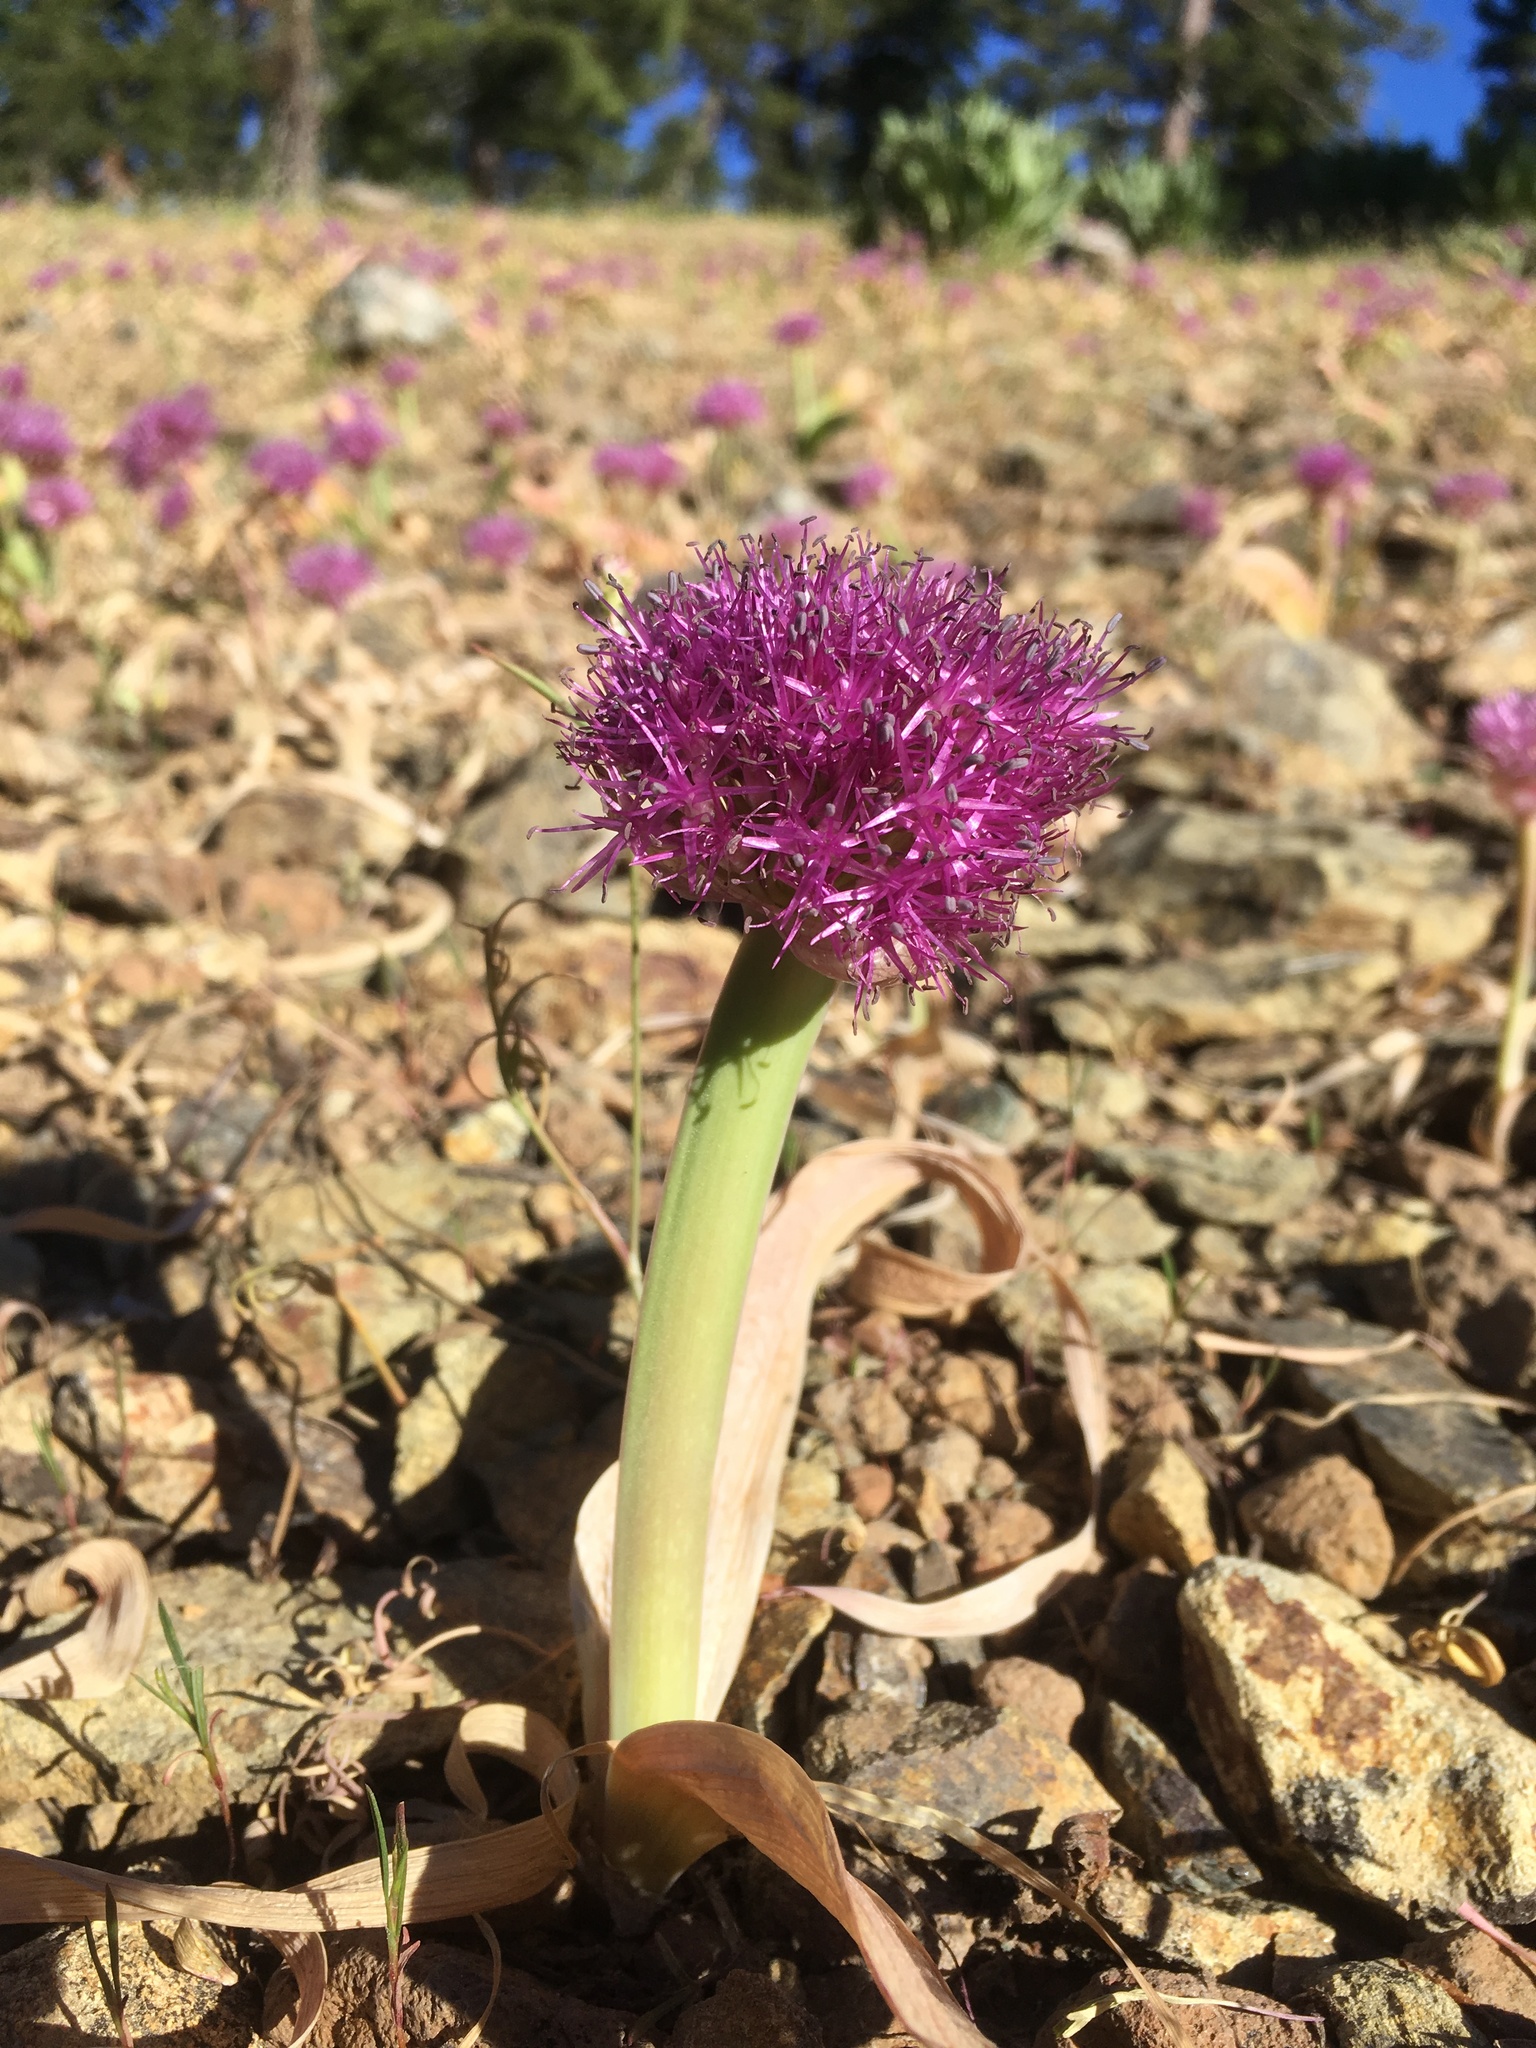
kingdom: Plantae
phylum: Tracheophyta
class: Liliopsida
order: Asparagales
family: Amaryllidaceae
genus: Allium
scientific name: Allium platycaule
